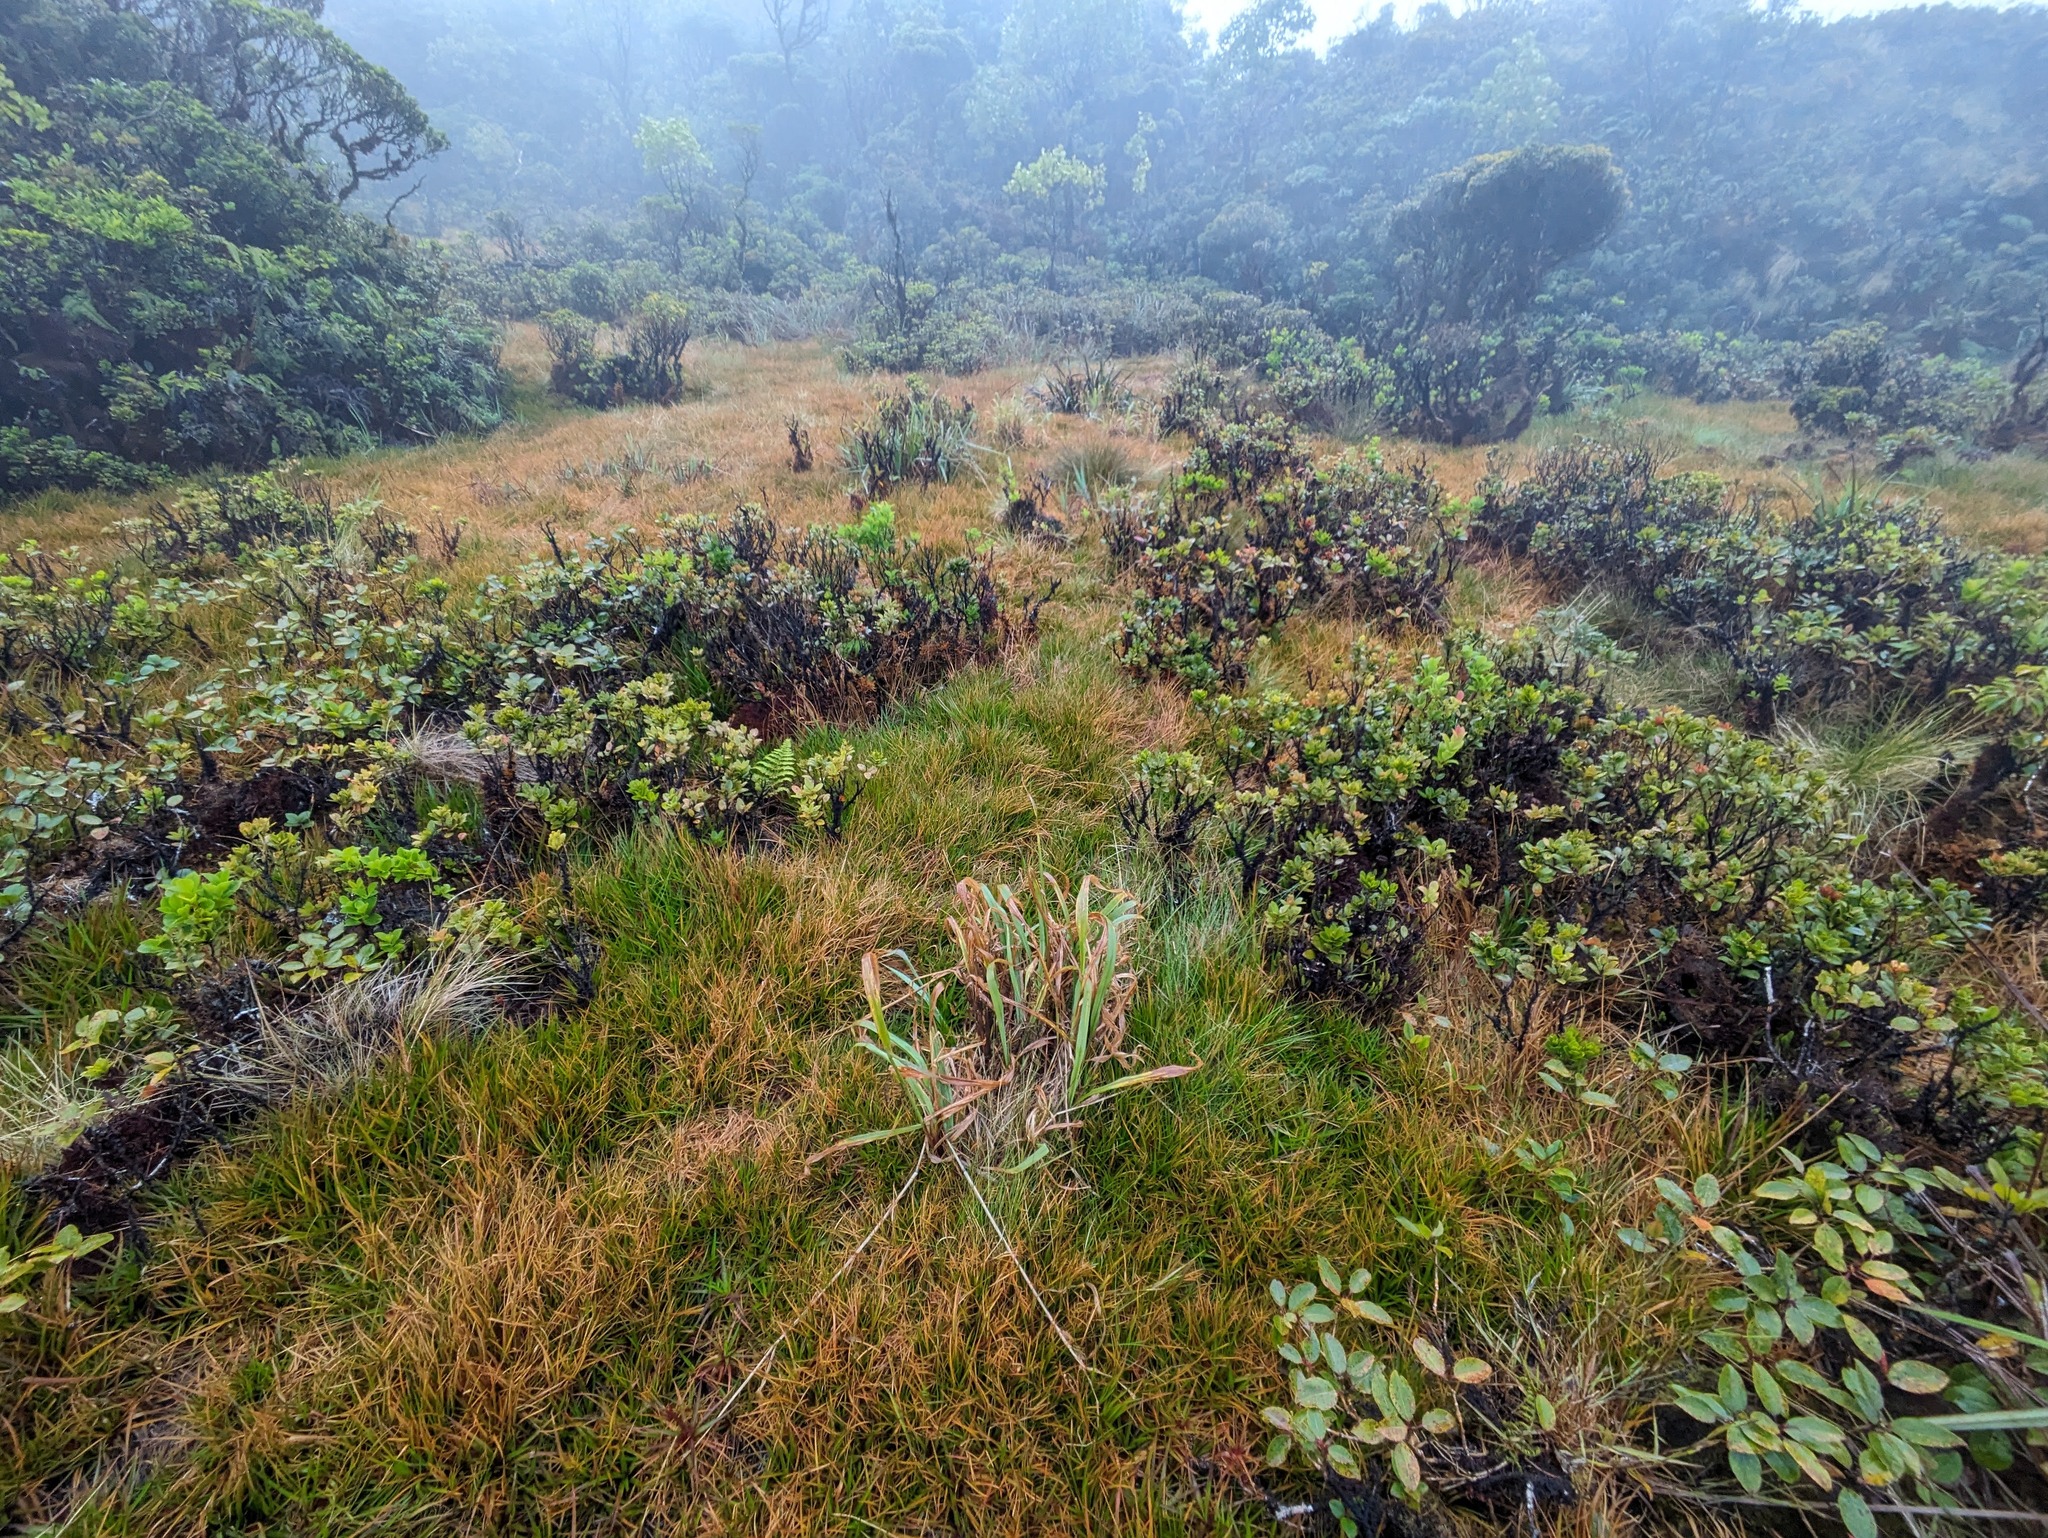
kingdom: Plantae
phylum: Tracheophyta
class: Liliopsida
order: Poales
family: Poaceae
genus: Paspalum
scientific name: Paspalum urvillei
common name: Vasey's grass
